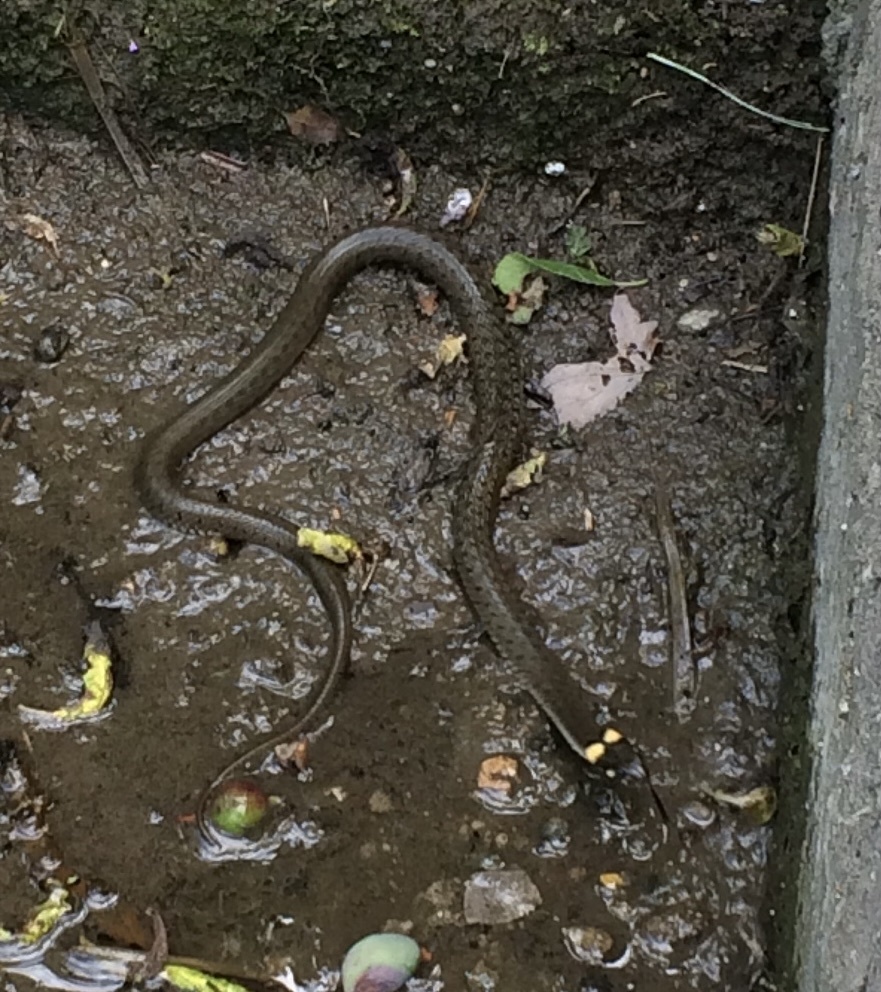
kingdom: Animalia
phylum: Chordata
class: Squamata
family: Colubridae
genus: Natrix
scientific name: Natrix natrix
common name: Grass snake
